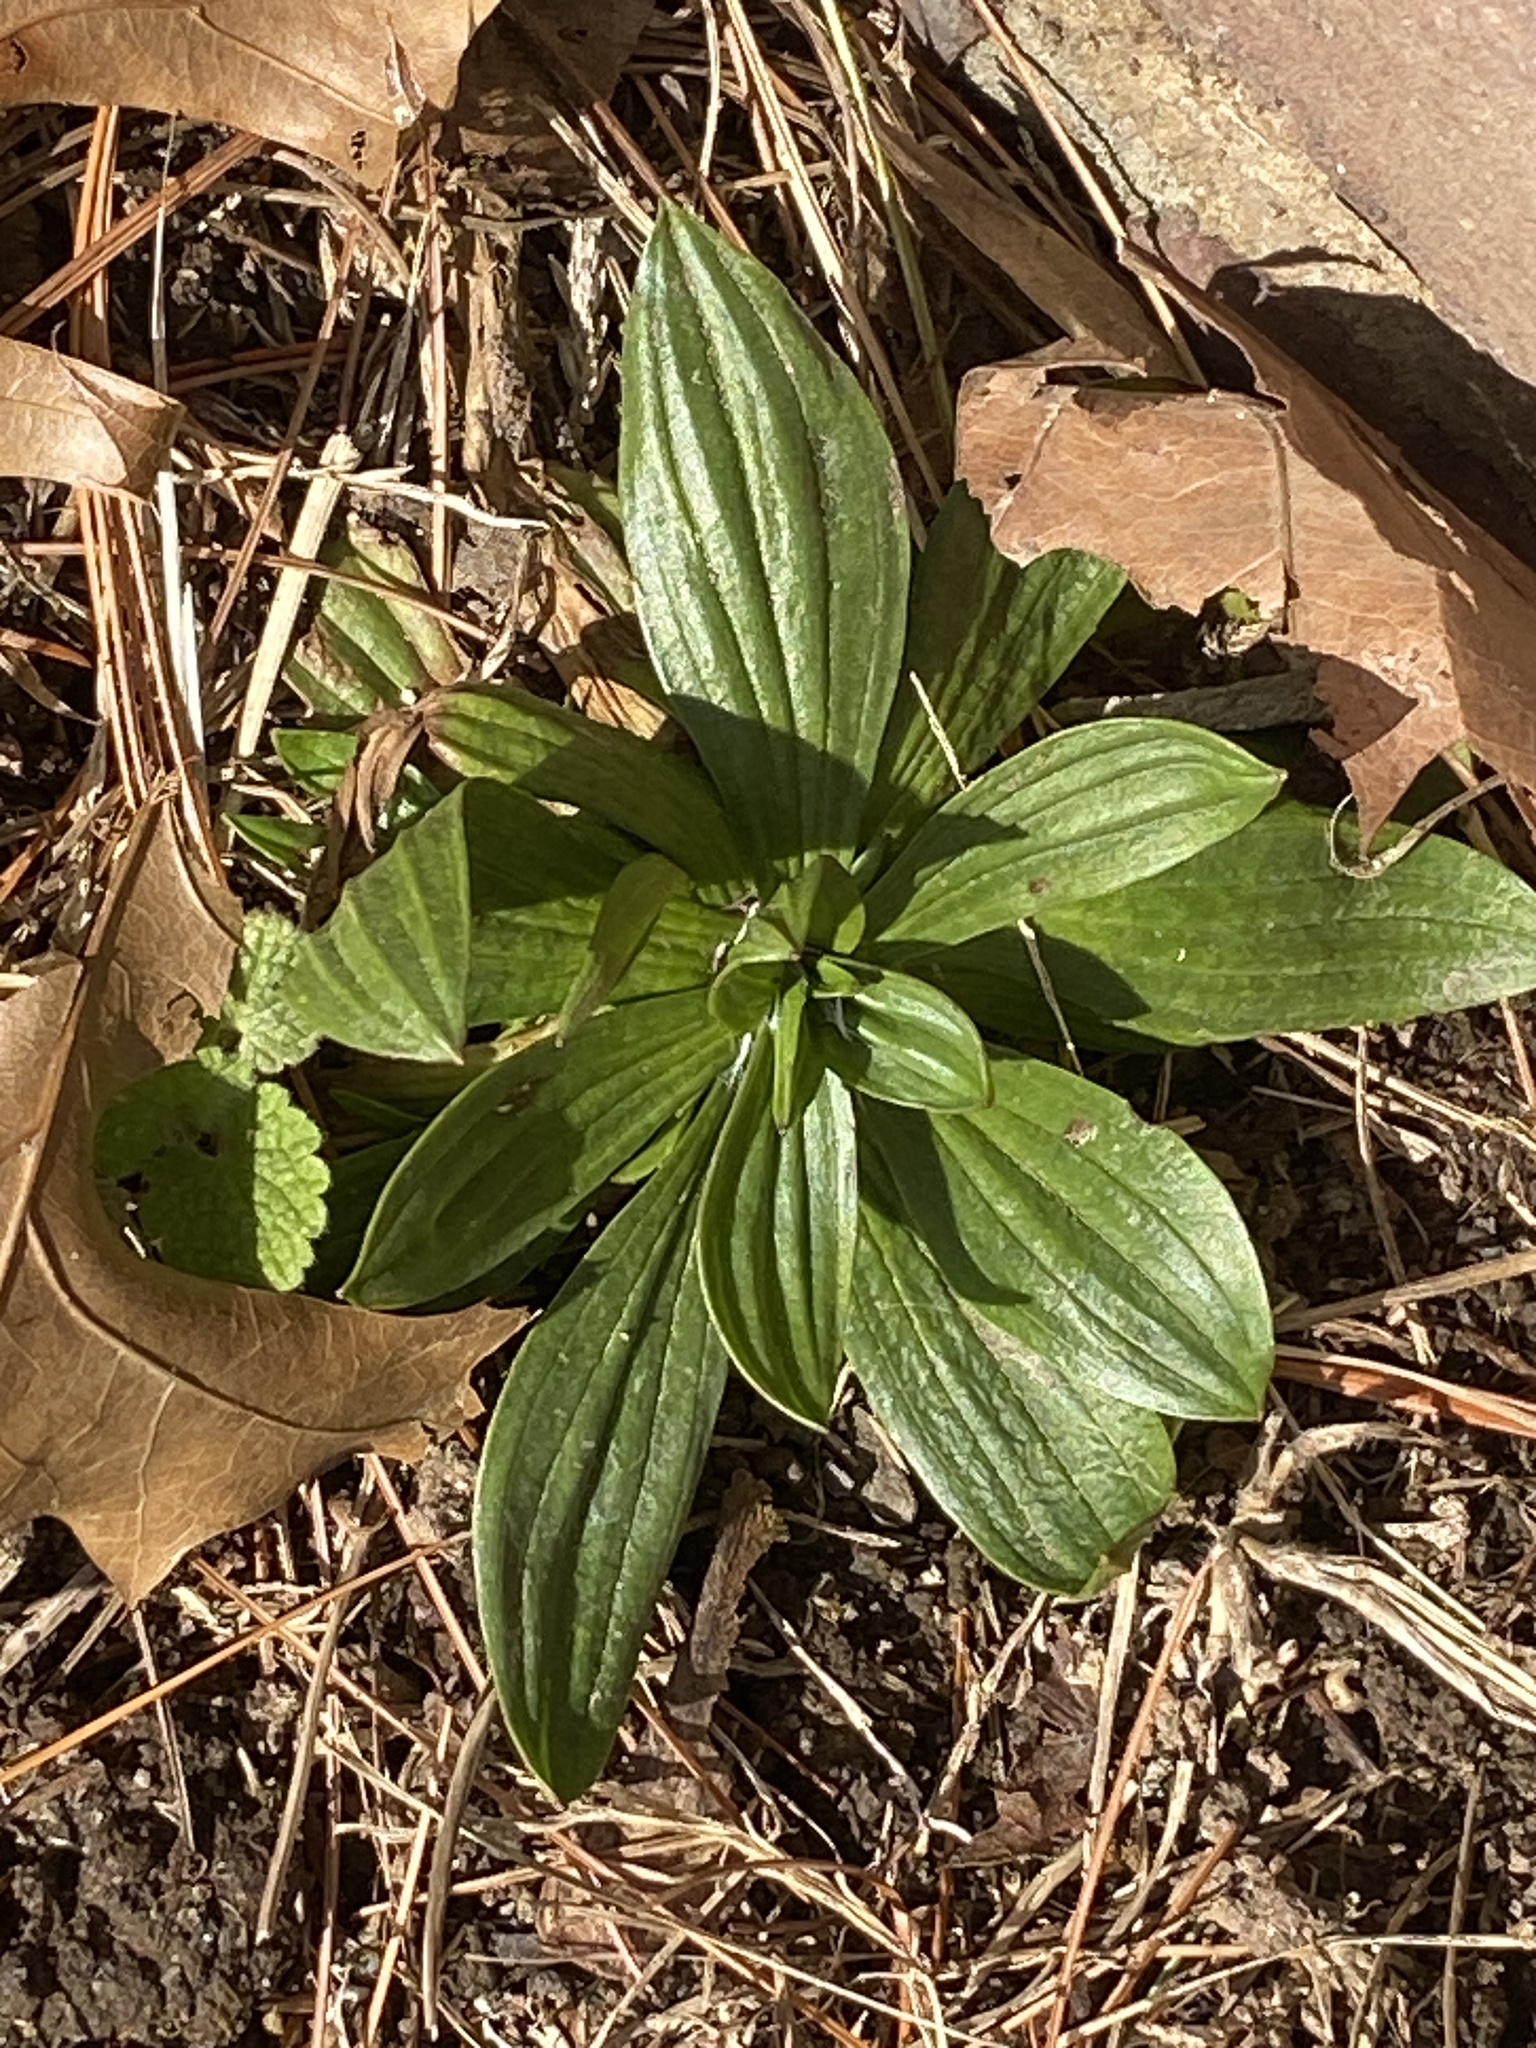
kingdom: Plantae
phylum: Tracheophyta
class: Magnoliopsida
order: Lamiales
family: Plantaginaceae
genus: Plantago
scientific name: Plantago lanceolata
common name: Ribwort plantain
